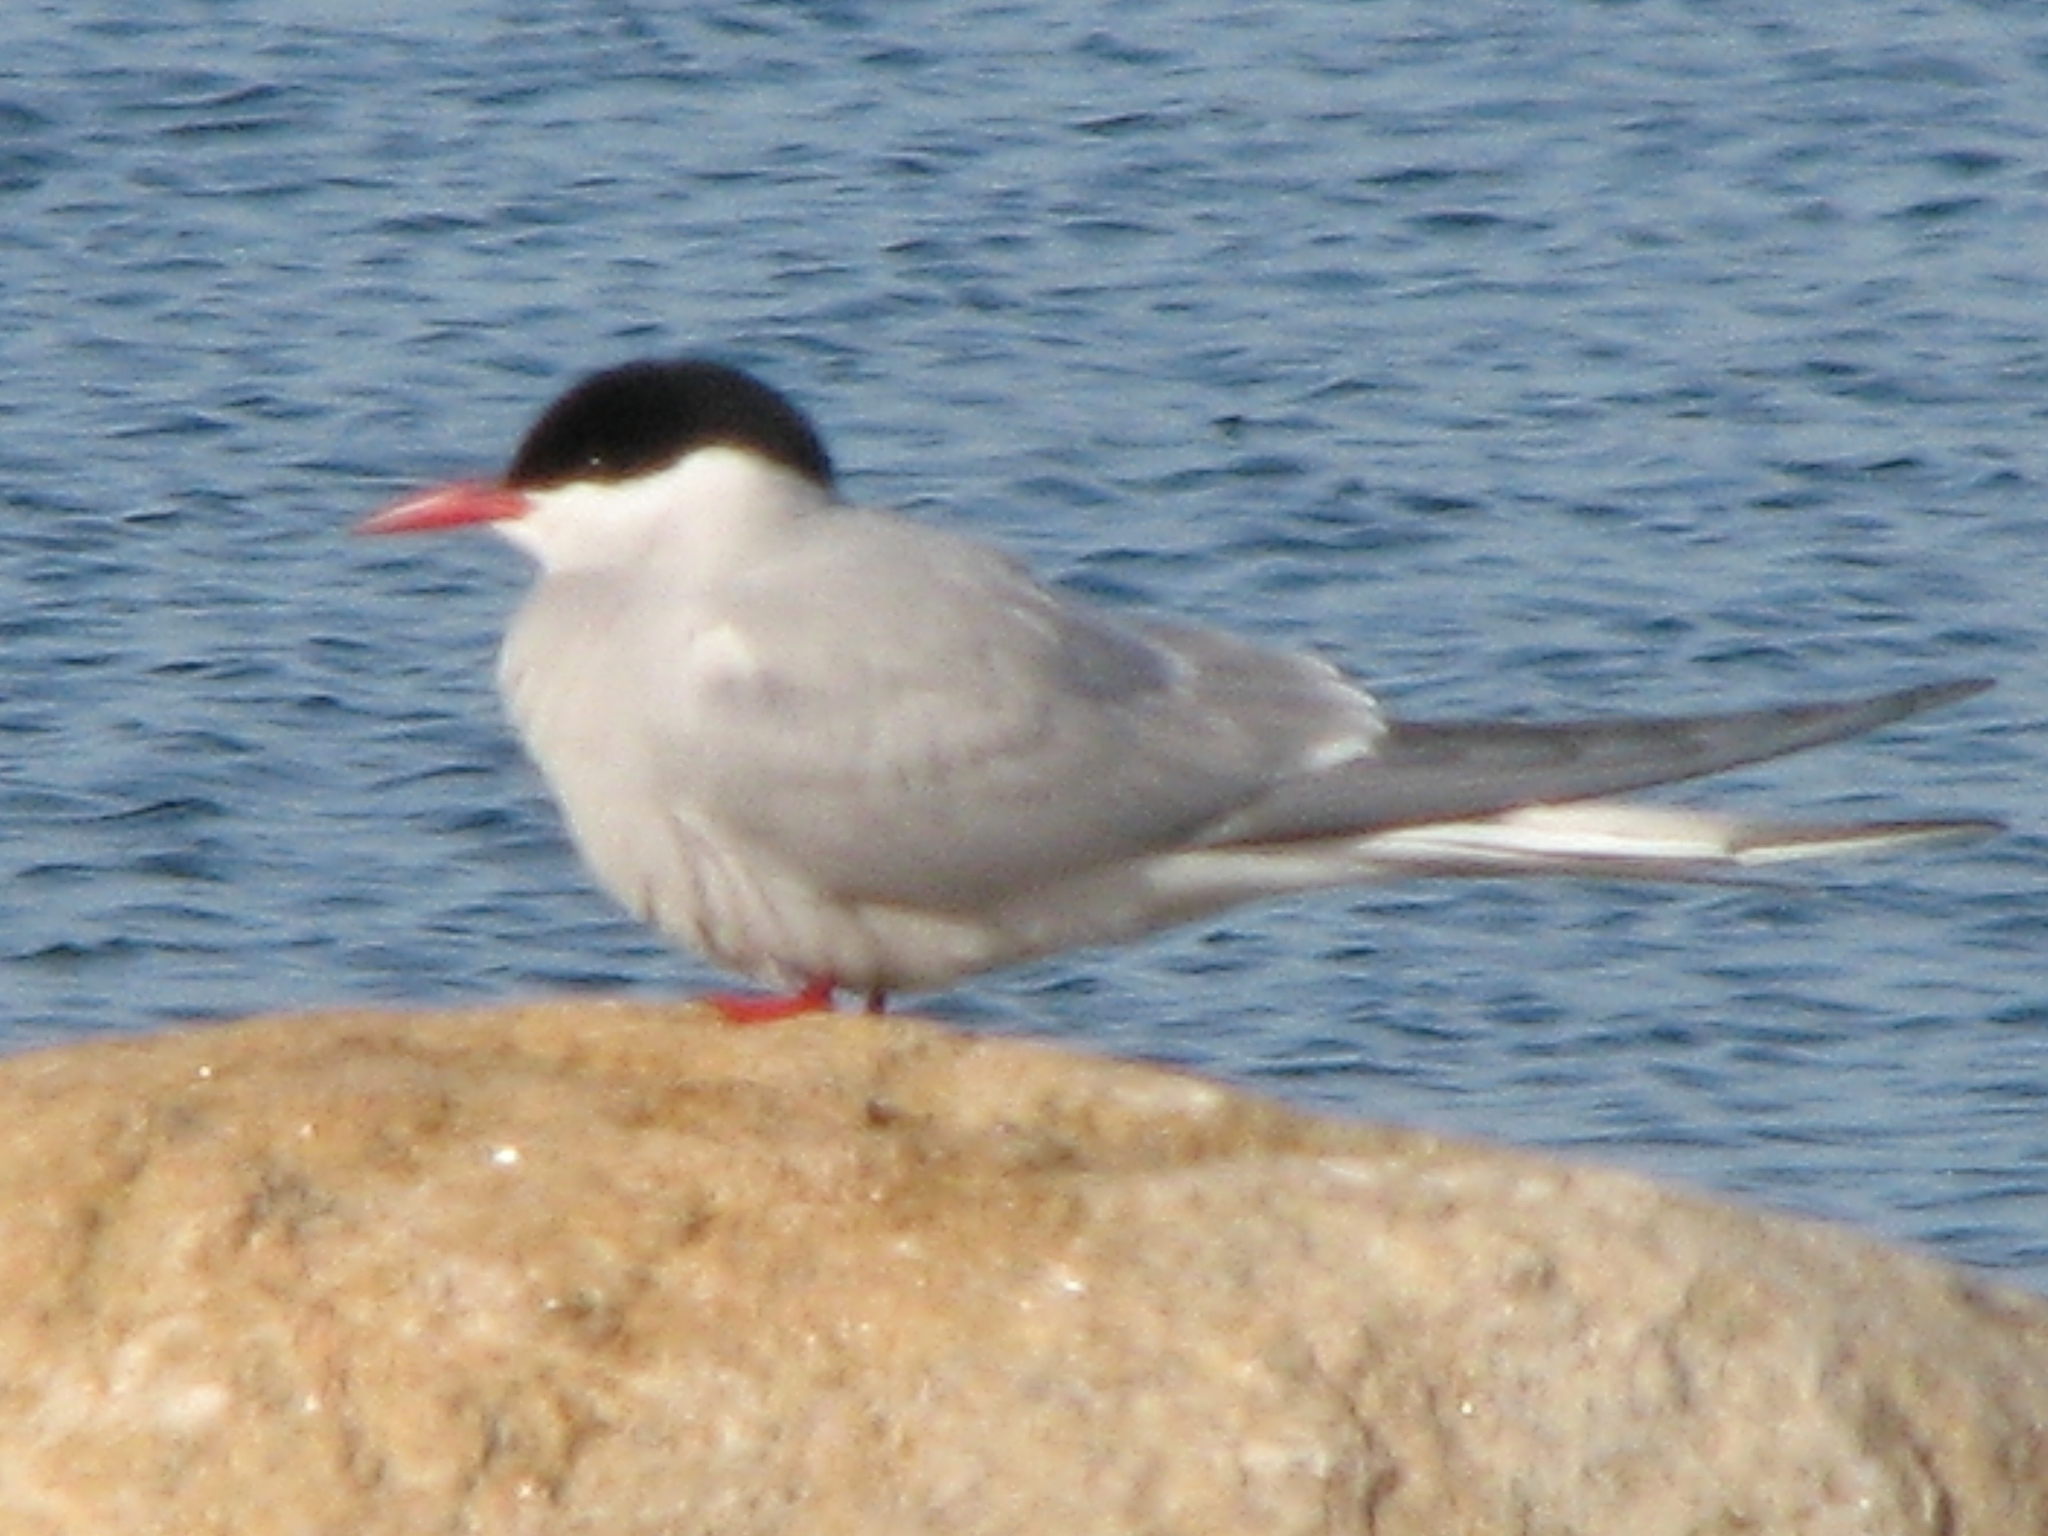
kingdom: Animalia
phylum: Chordata
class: Aves
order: Charadriiformes
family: Laridae
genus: Sterna
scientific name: Sterna paradisaea
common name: Arctic tern
